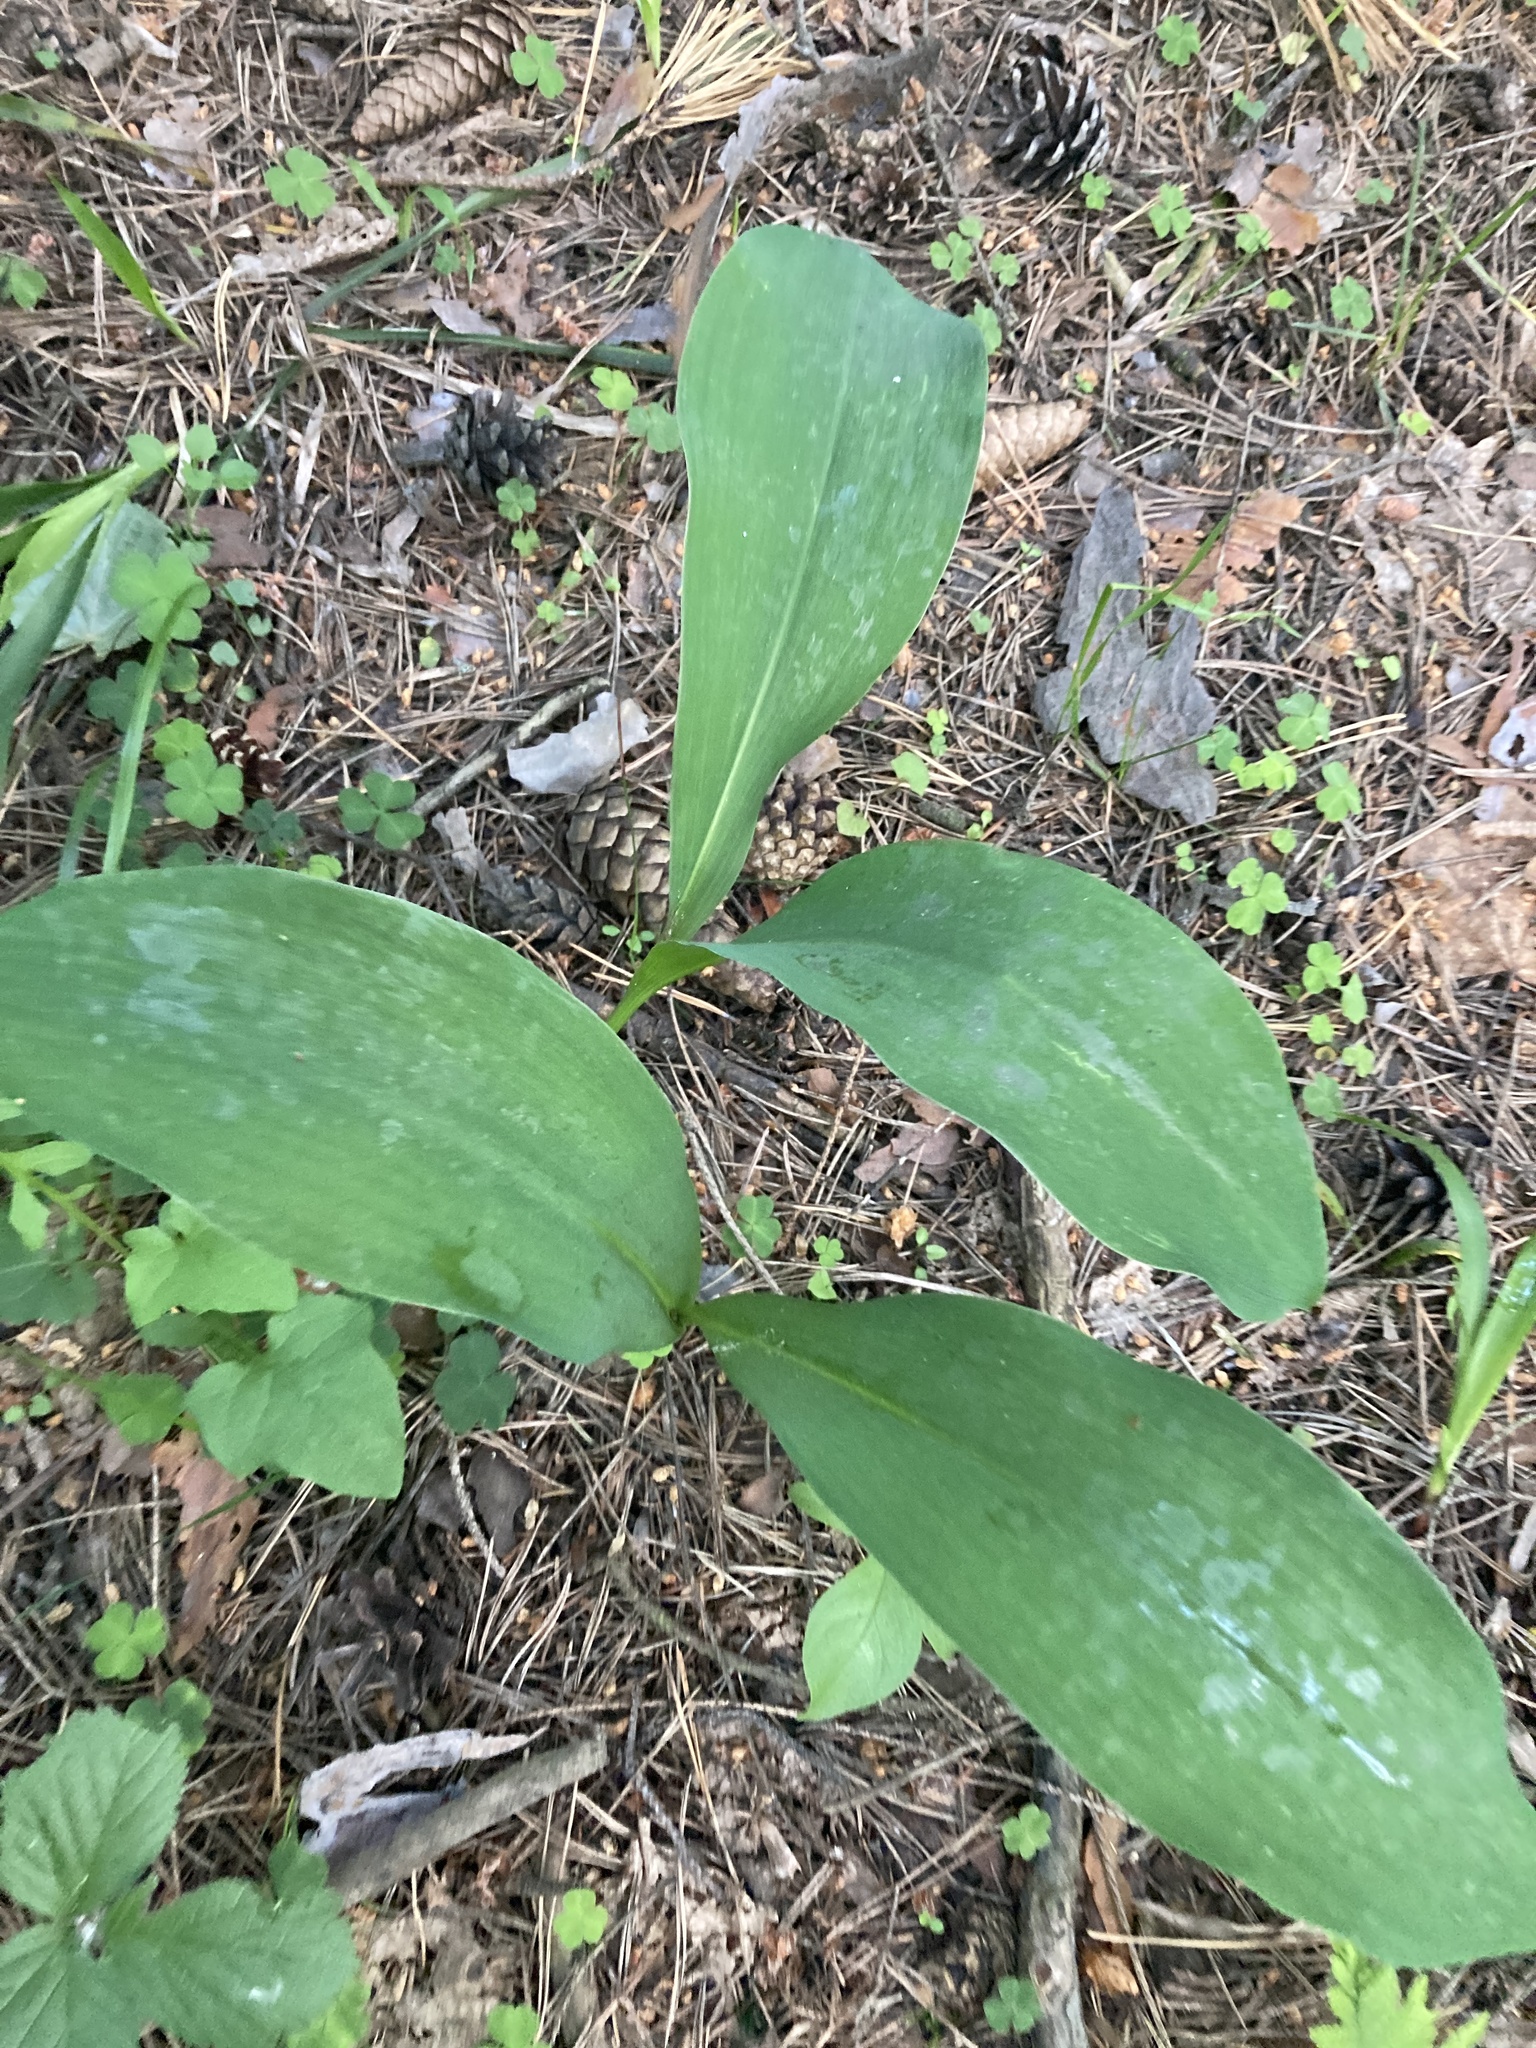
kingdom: Plantae
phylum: Tracheophyta
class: Liliopsida
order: Asparagales
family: Asparagaceae
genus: Convallaria
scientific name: Convallaria majalis
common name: Lily-of-the-valley
